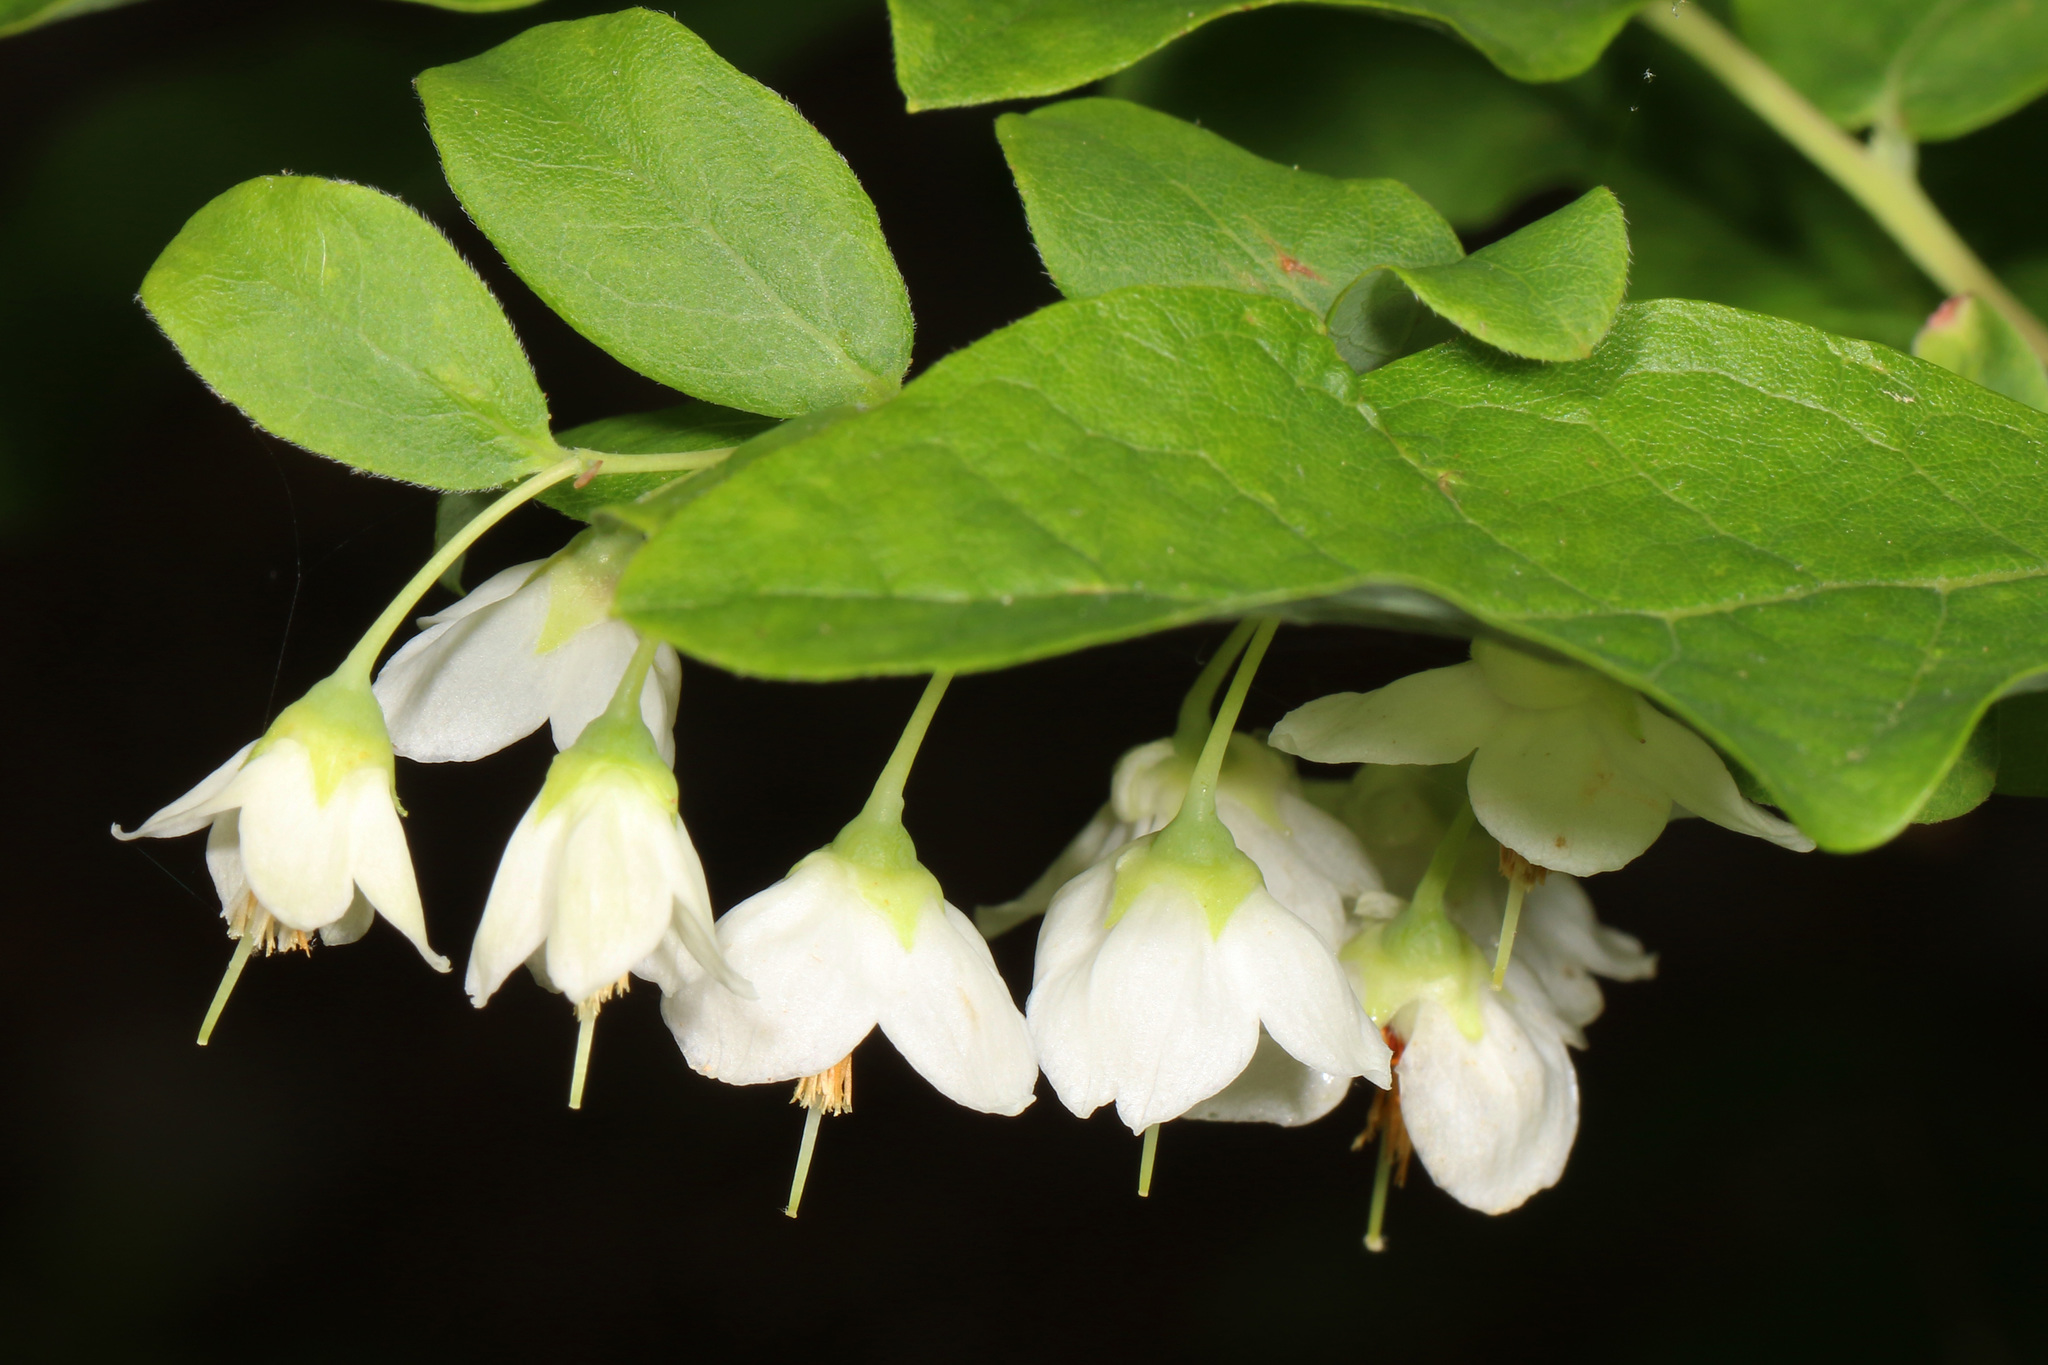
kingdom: Plantae
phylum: Tracheophyta
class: Magnoliopsida
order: Ericales
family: Ericaceae
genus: Vaccinium
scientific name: Vaccinium stamineum
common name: Deerberry
